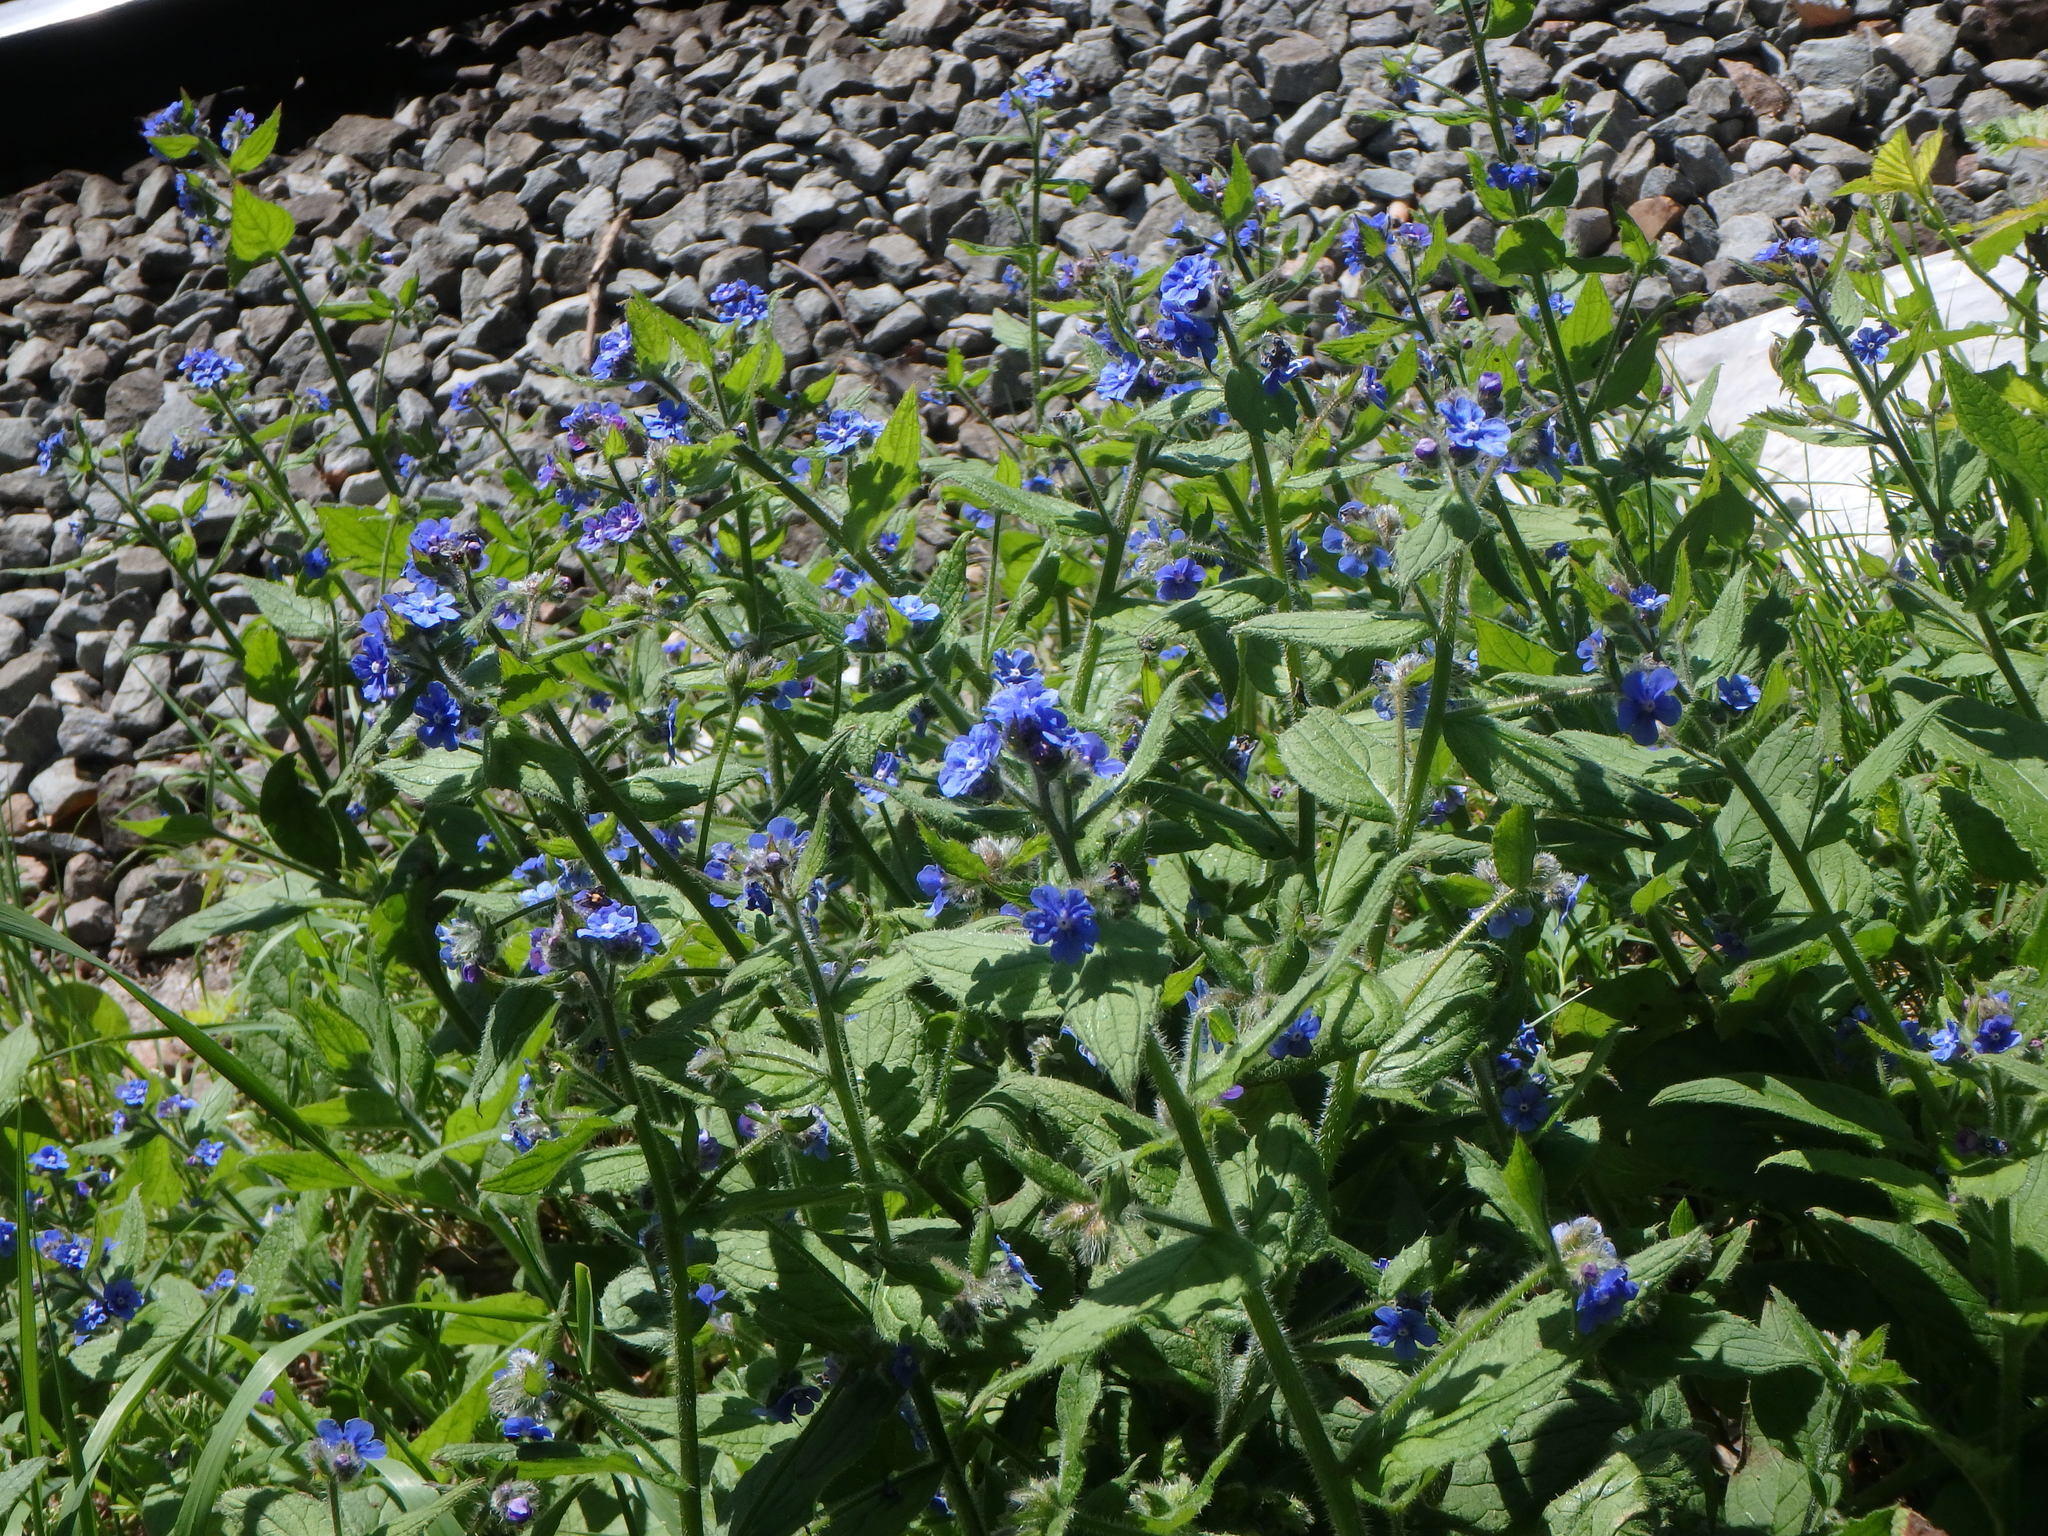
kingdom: Plantae
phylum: Tracheophyta
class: Magnoliopsida
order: Boraginales
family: Boraginaceae
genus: Pentaglottis
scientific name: Pentaglottis sempervirens
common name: Green alkanet
